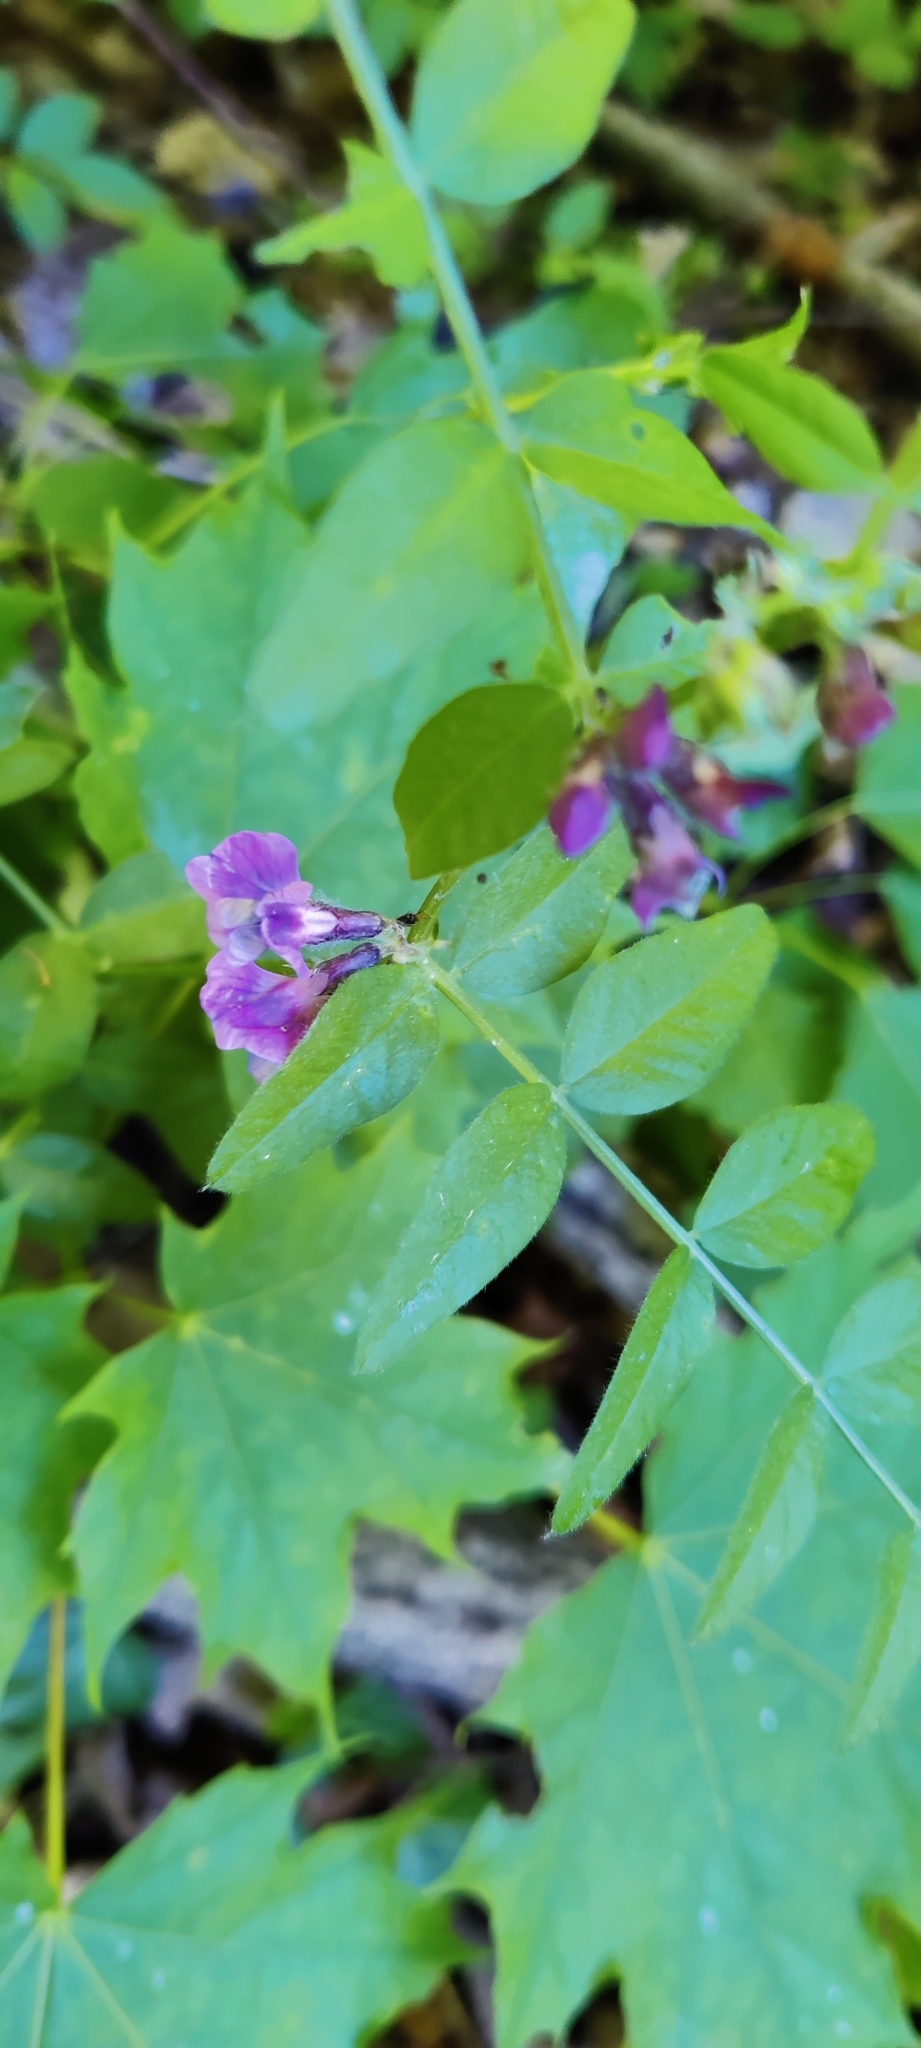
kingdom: Plantae
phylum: Tracheophyta
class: Magnoliopsida
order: Fabales
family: Fabaceae
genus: Lathyrus
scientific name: Lathyrus vernus
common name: Spring pea
